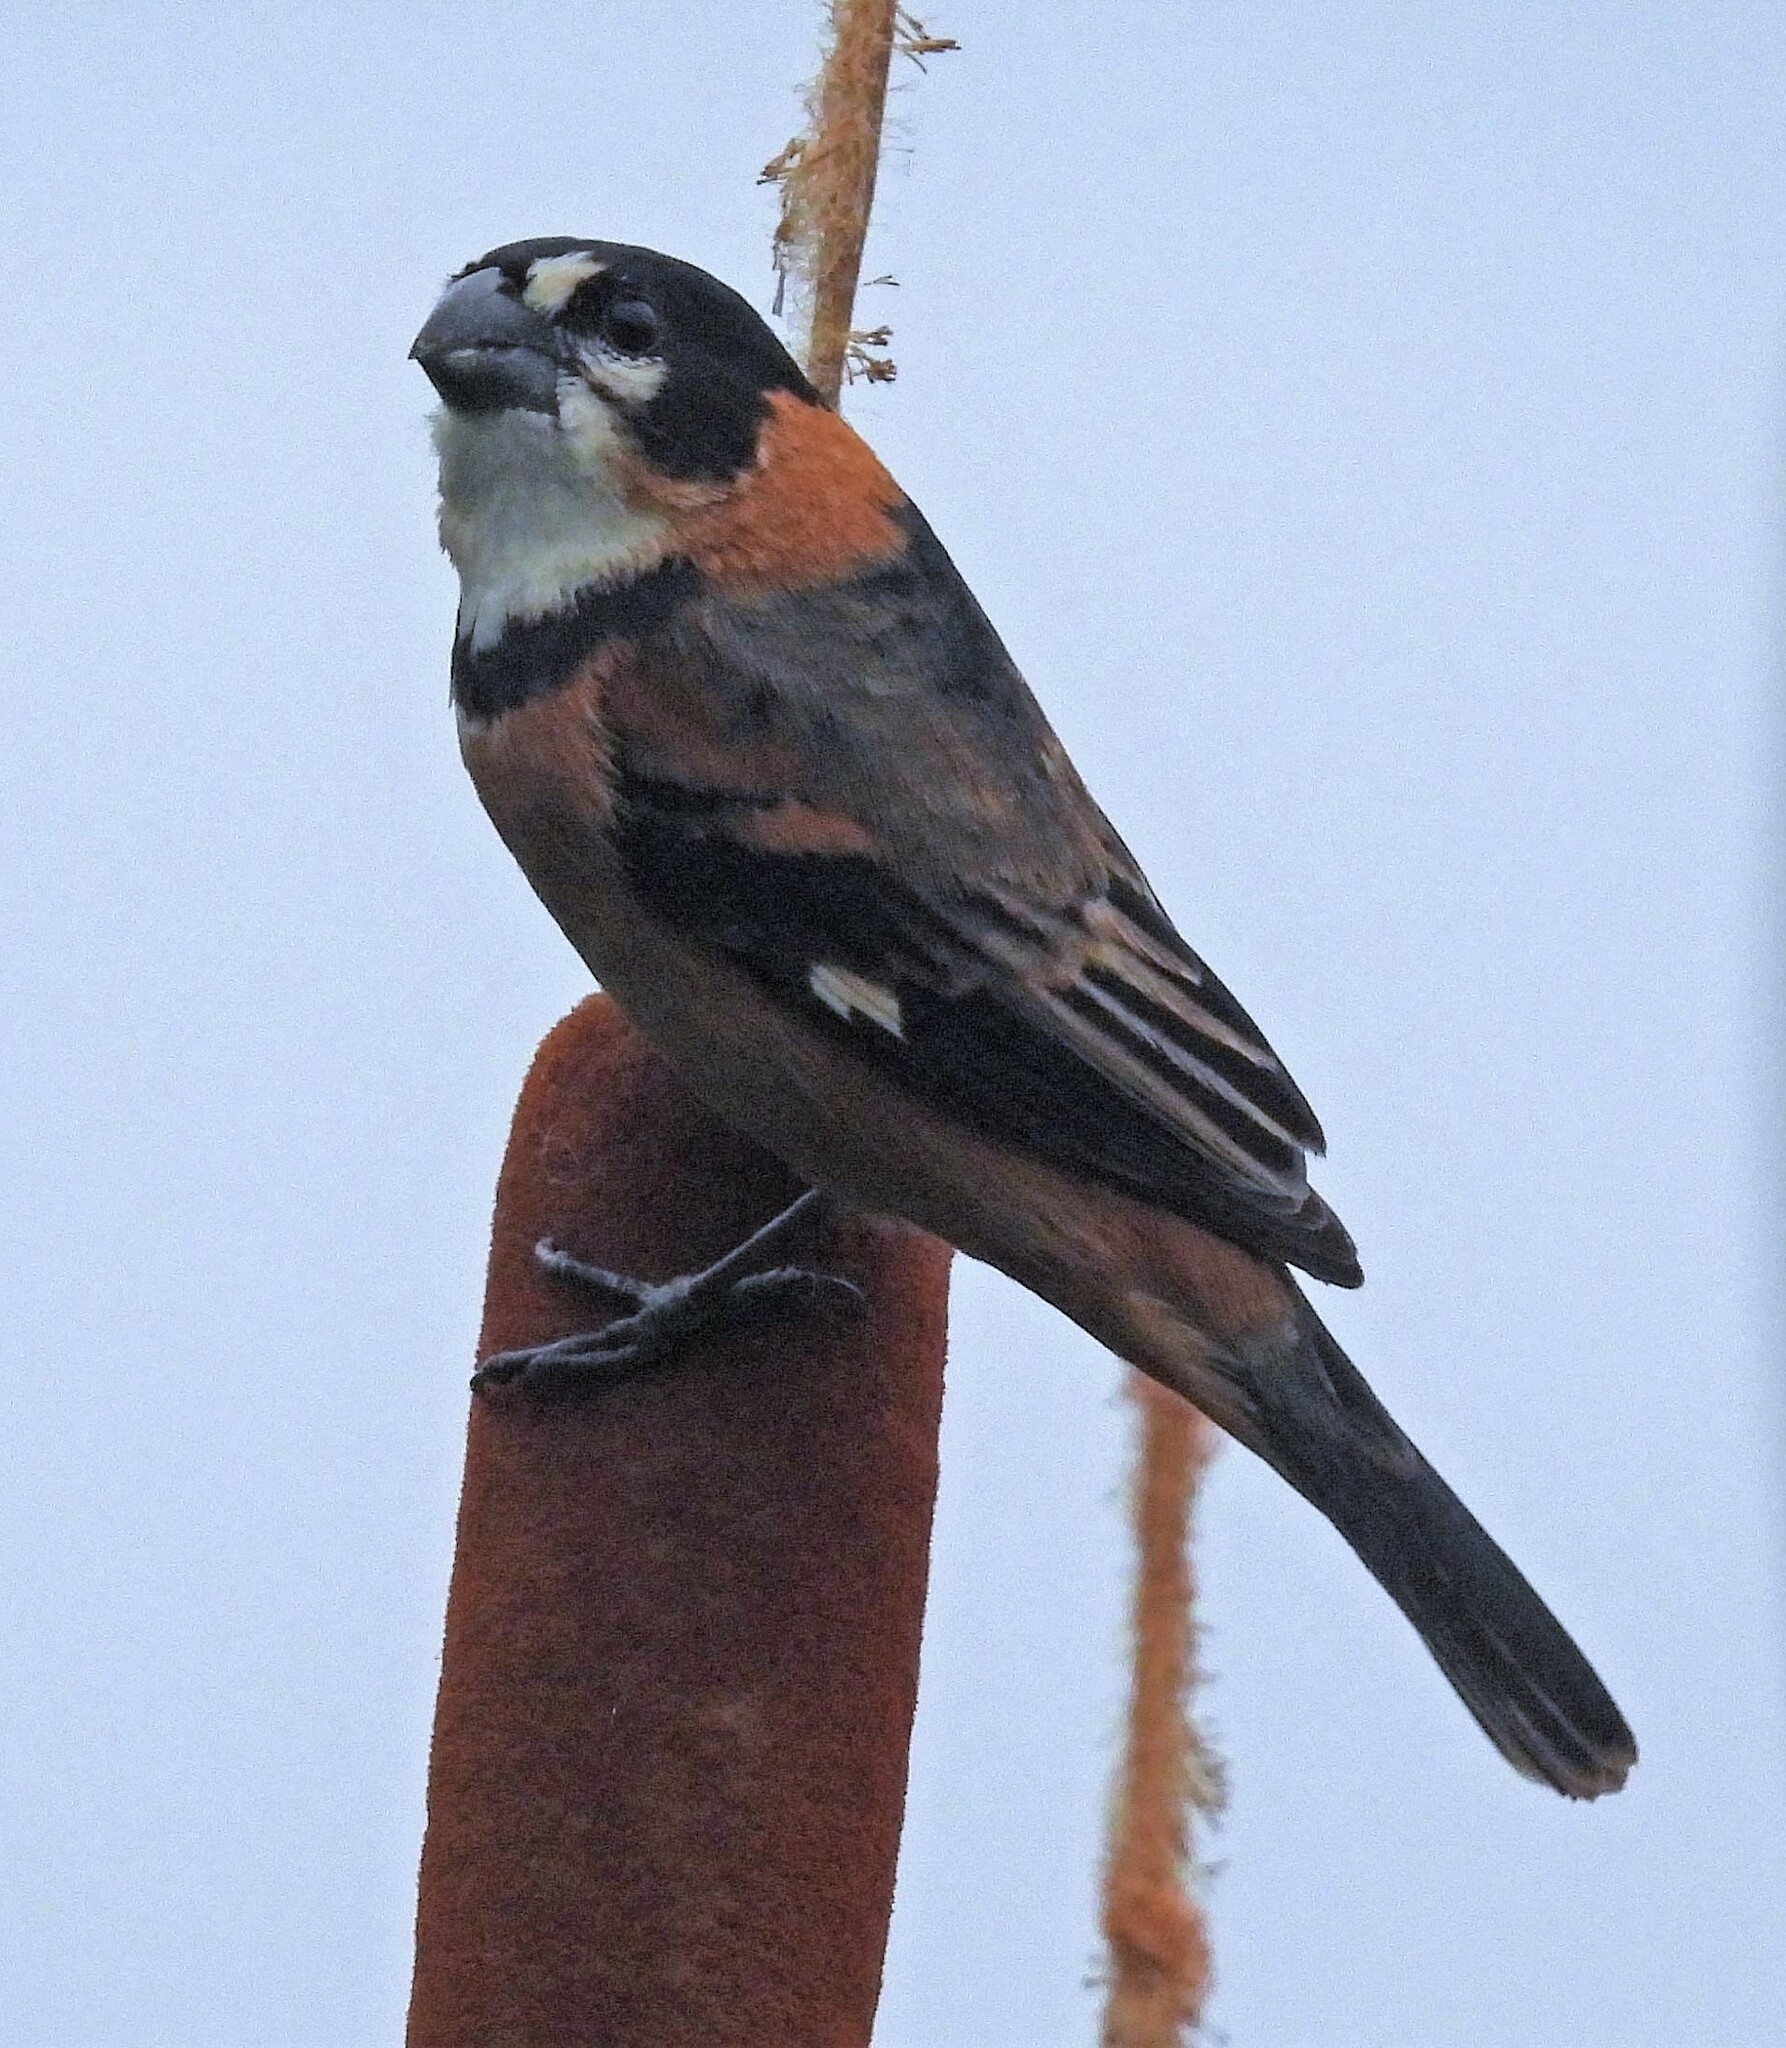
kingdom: Animalia
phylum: Chordata
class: Aves
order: Passeriformes
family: Thraupidae
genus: Sporophila
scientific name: Sporophila collaris
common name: Rusty-collared seedeater
